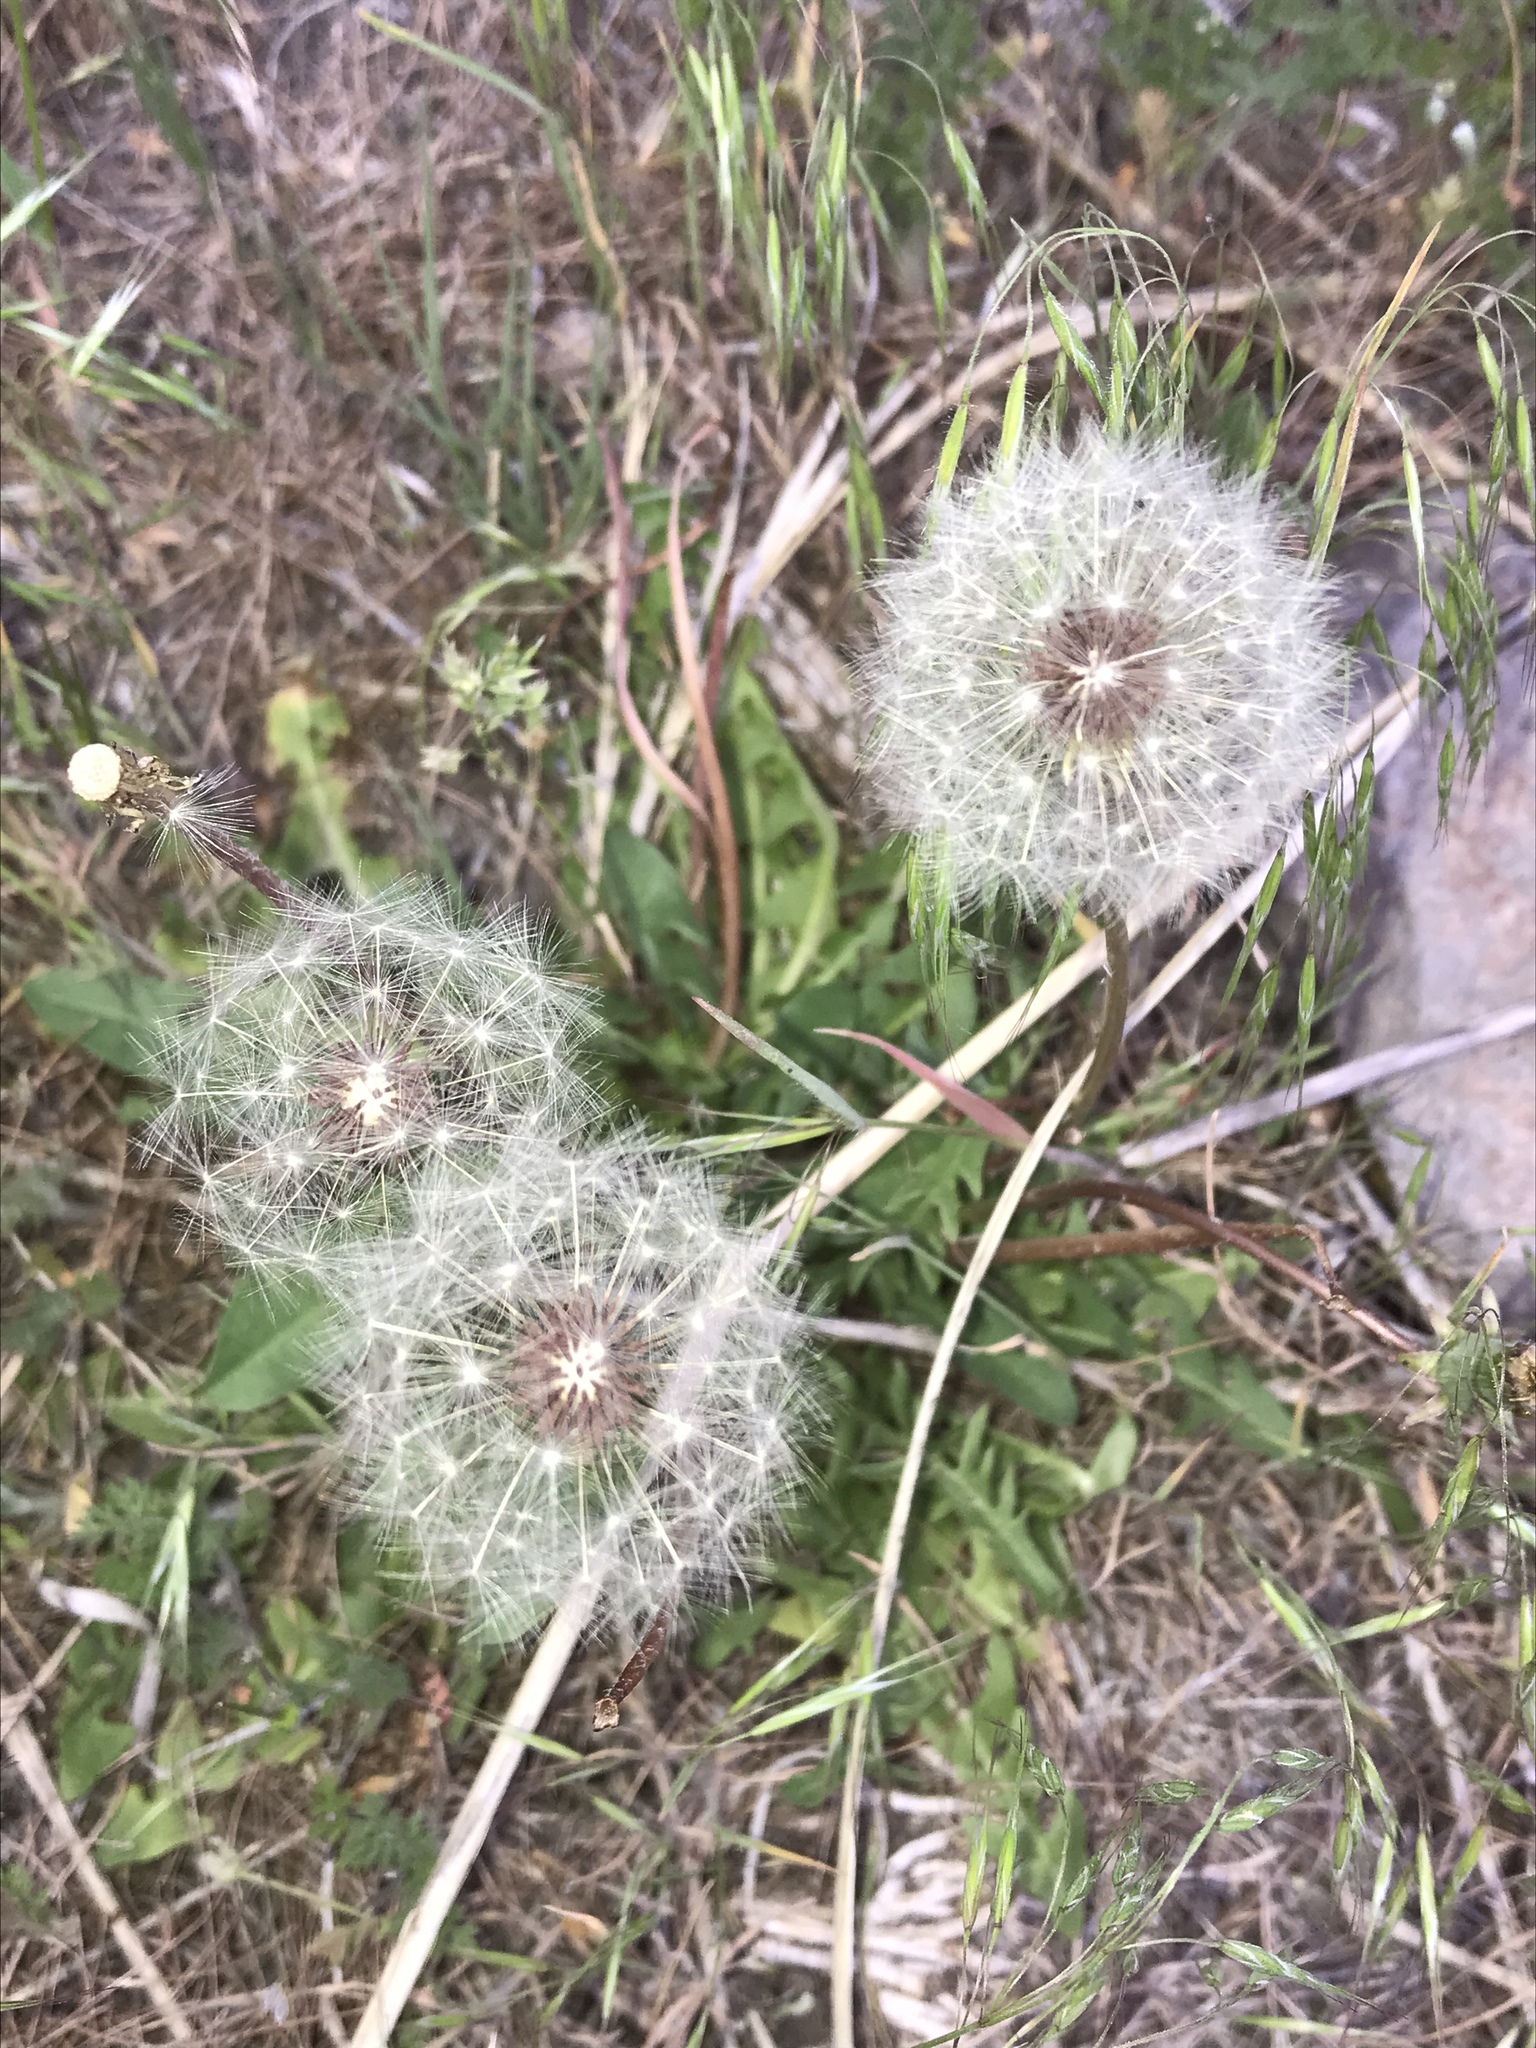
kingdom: Plantae
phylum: Tracheophyta
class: Magnoliopsida
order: Asterales
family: Asteraceae
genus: Taraxacum
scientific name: Taraxacum officinale
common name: Common dandelion
